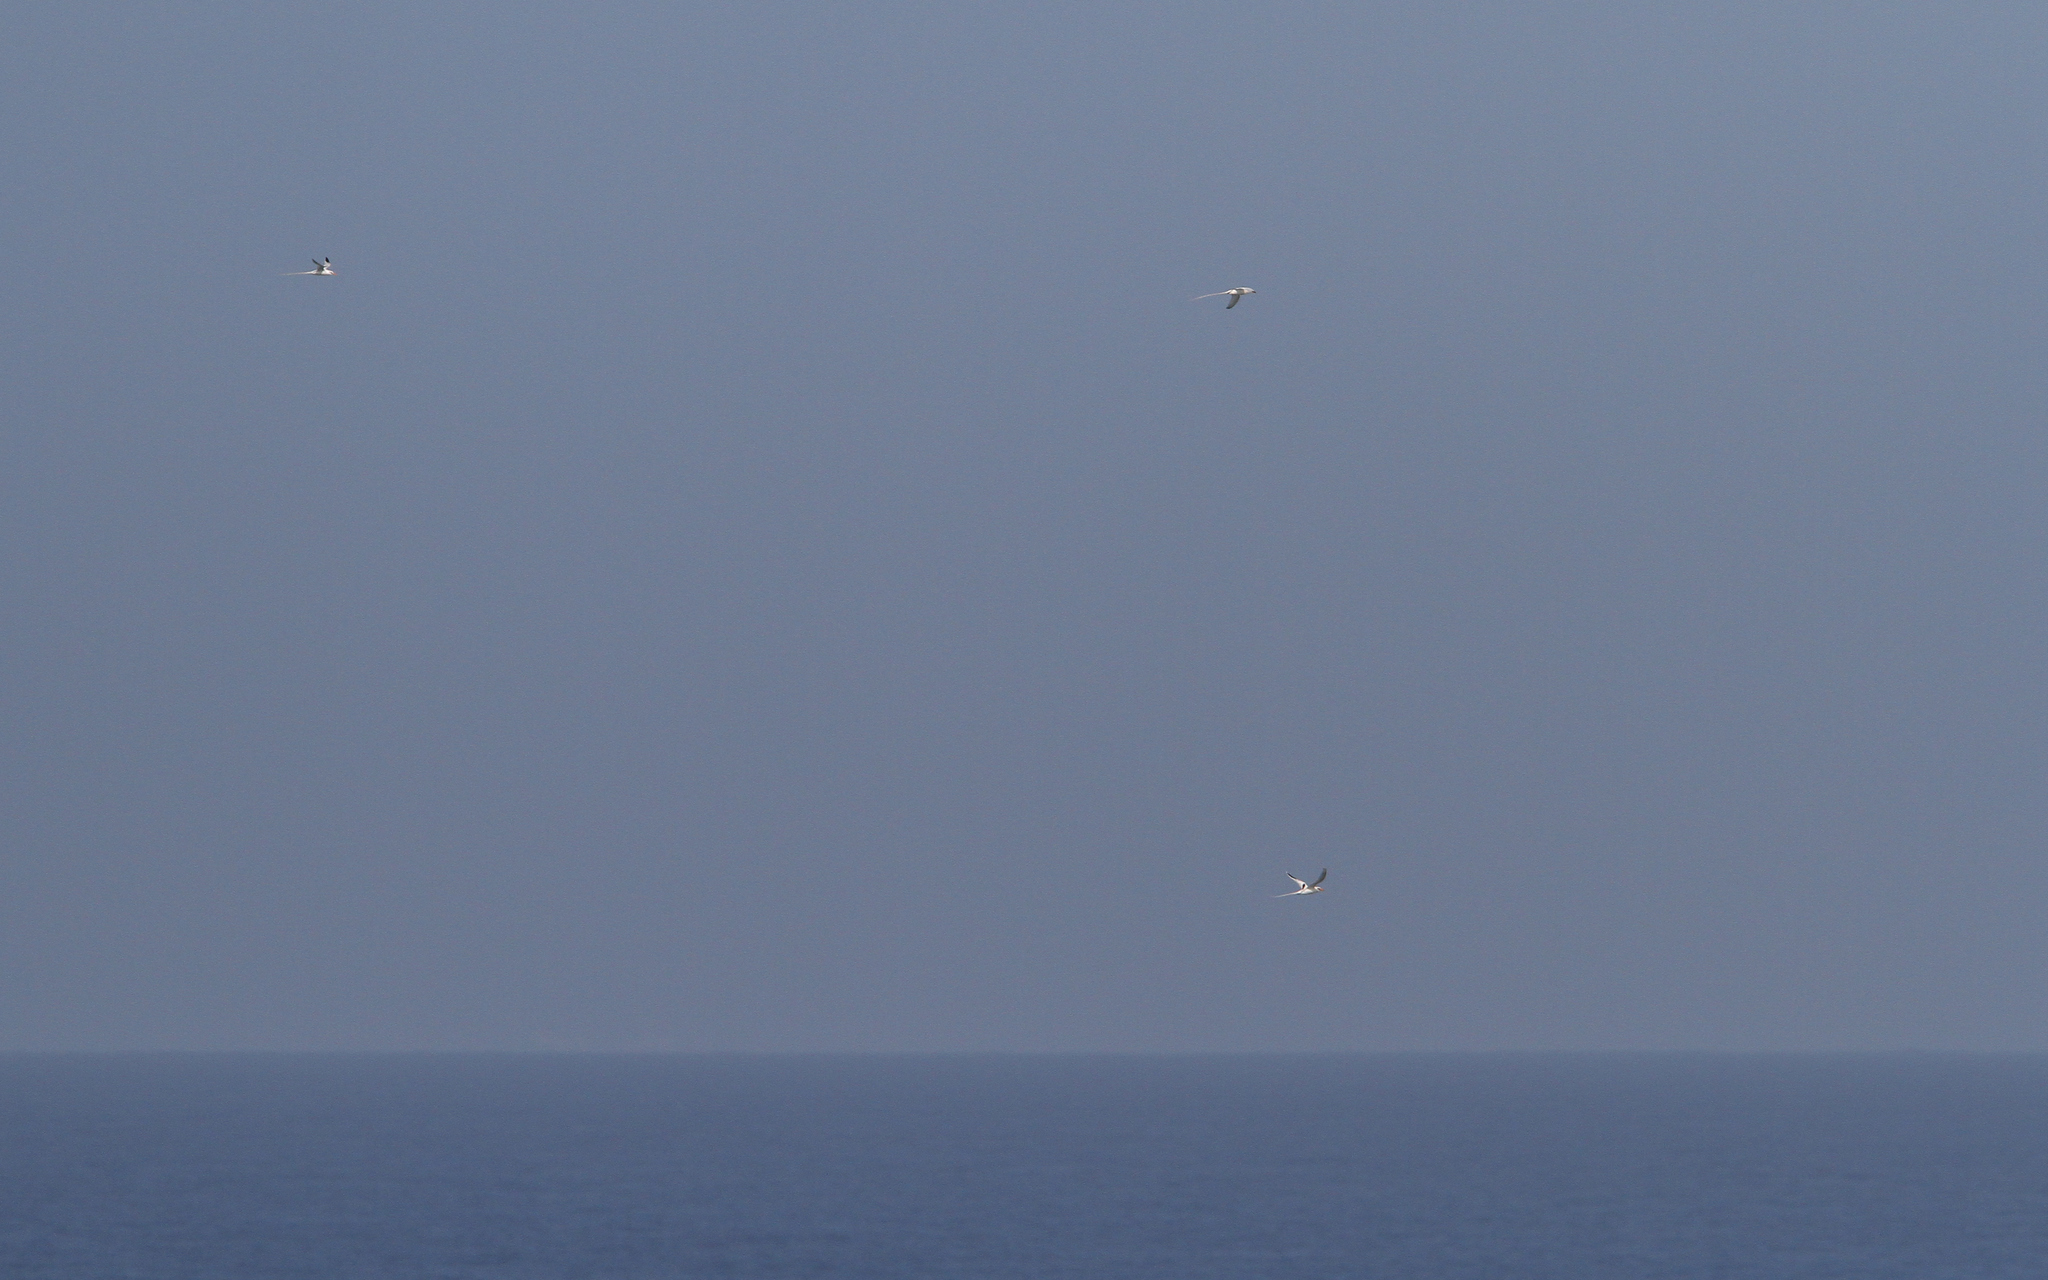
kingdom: Animalia
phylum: Chordata
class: Aves
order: Phaethontiformes
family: Phaethontidae
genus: Phaethon
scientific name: Phaethon lepturus
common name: White-tailed tropicbird
